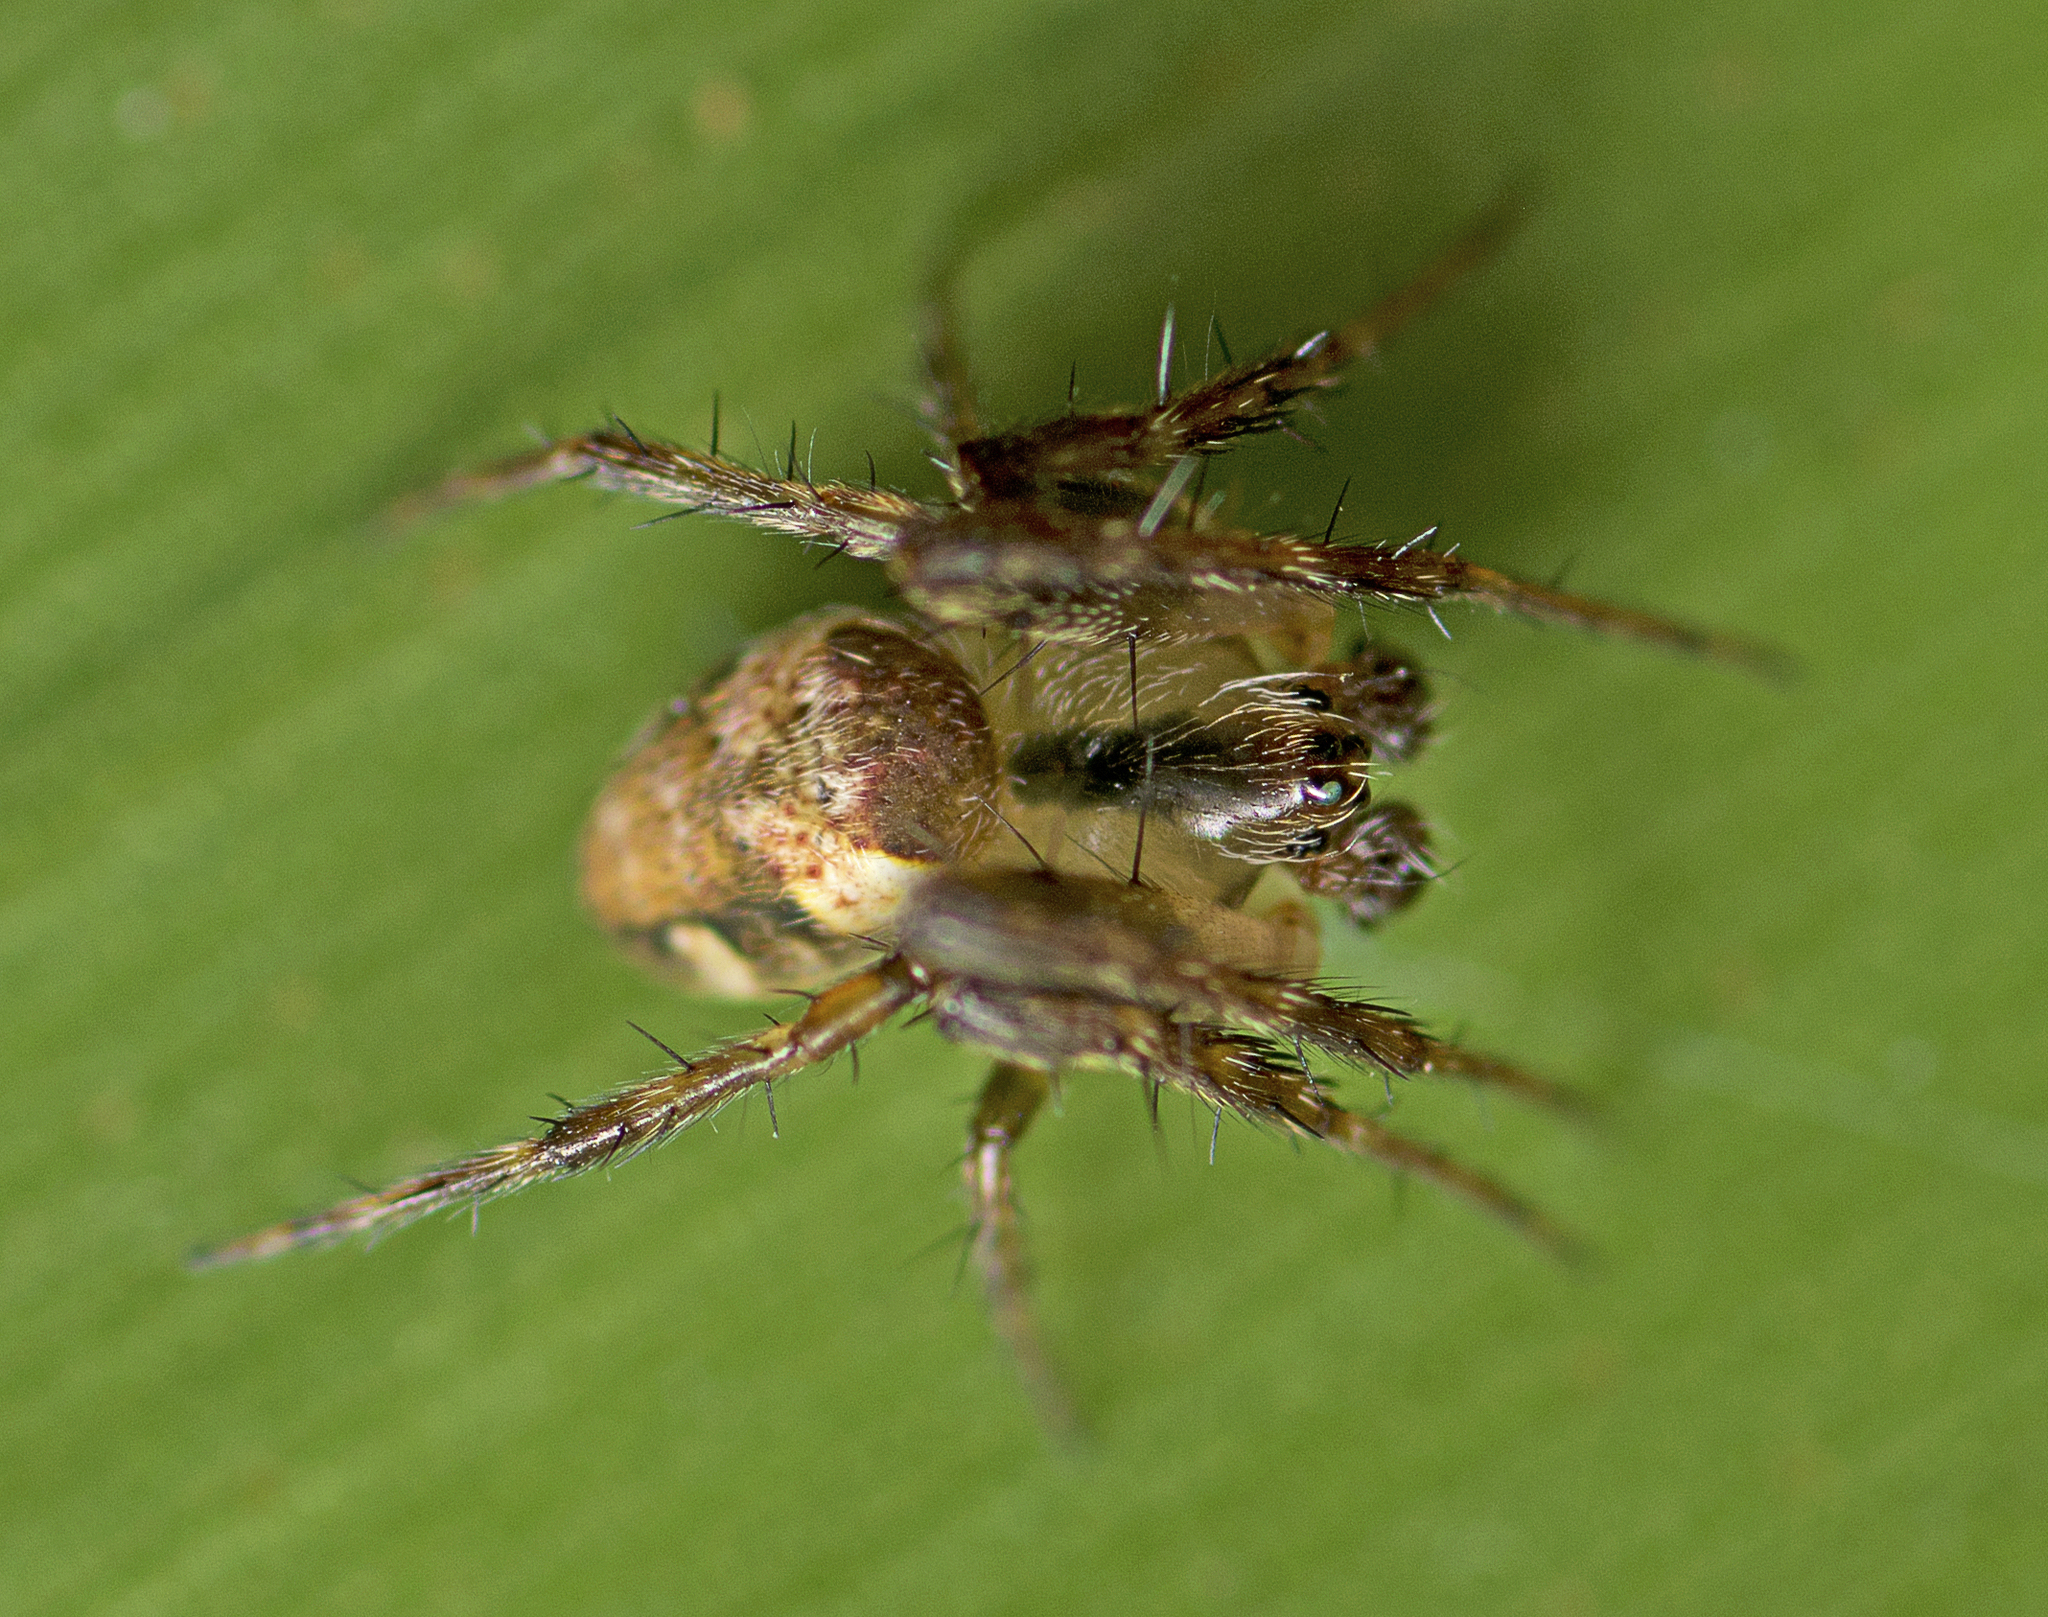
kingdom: Animalia
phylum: Arthropoda
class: Arachnida
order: Araneae
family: Araneidae
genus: Plebs
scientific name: Plebs eburnus
